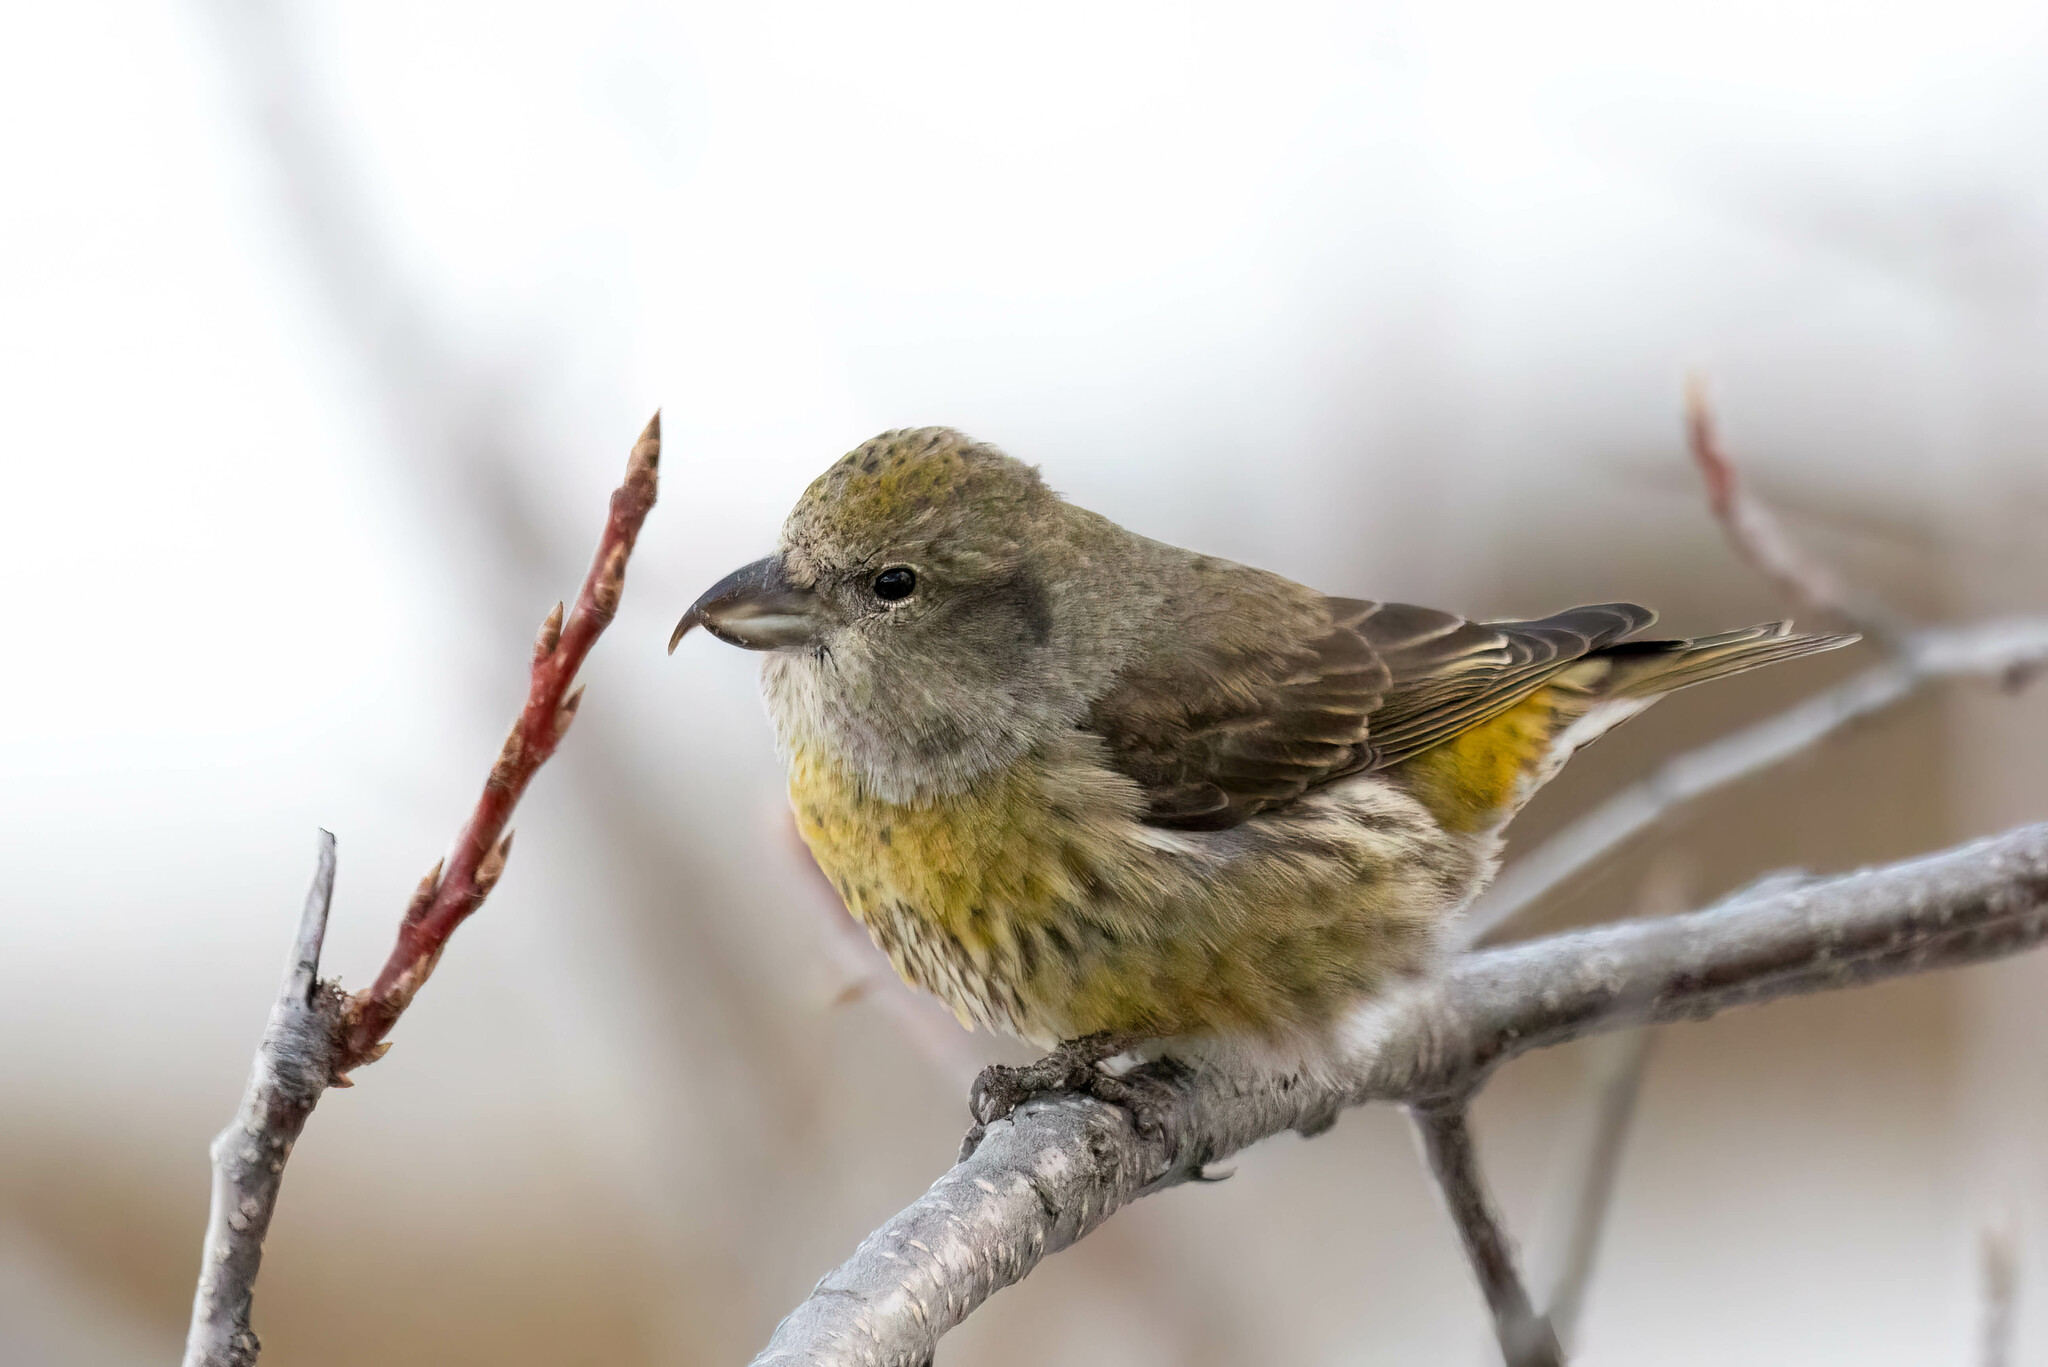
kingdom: Animalia
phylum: Chordata
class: Aves
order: Passeriformes
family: Fringillidae
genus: Loxia
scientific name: Loxia curvirostra
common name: Red crossbill
